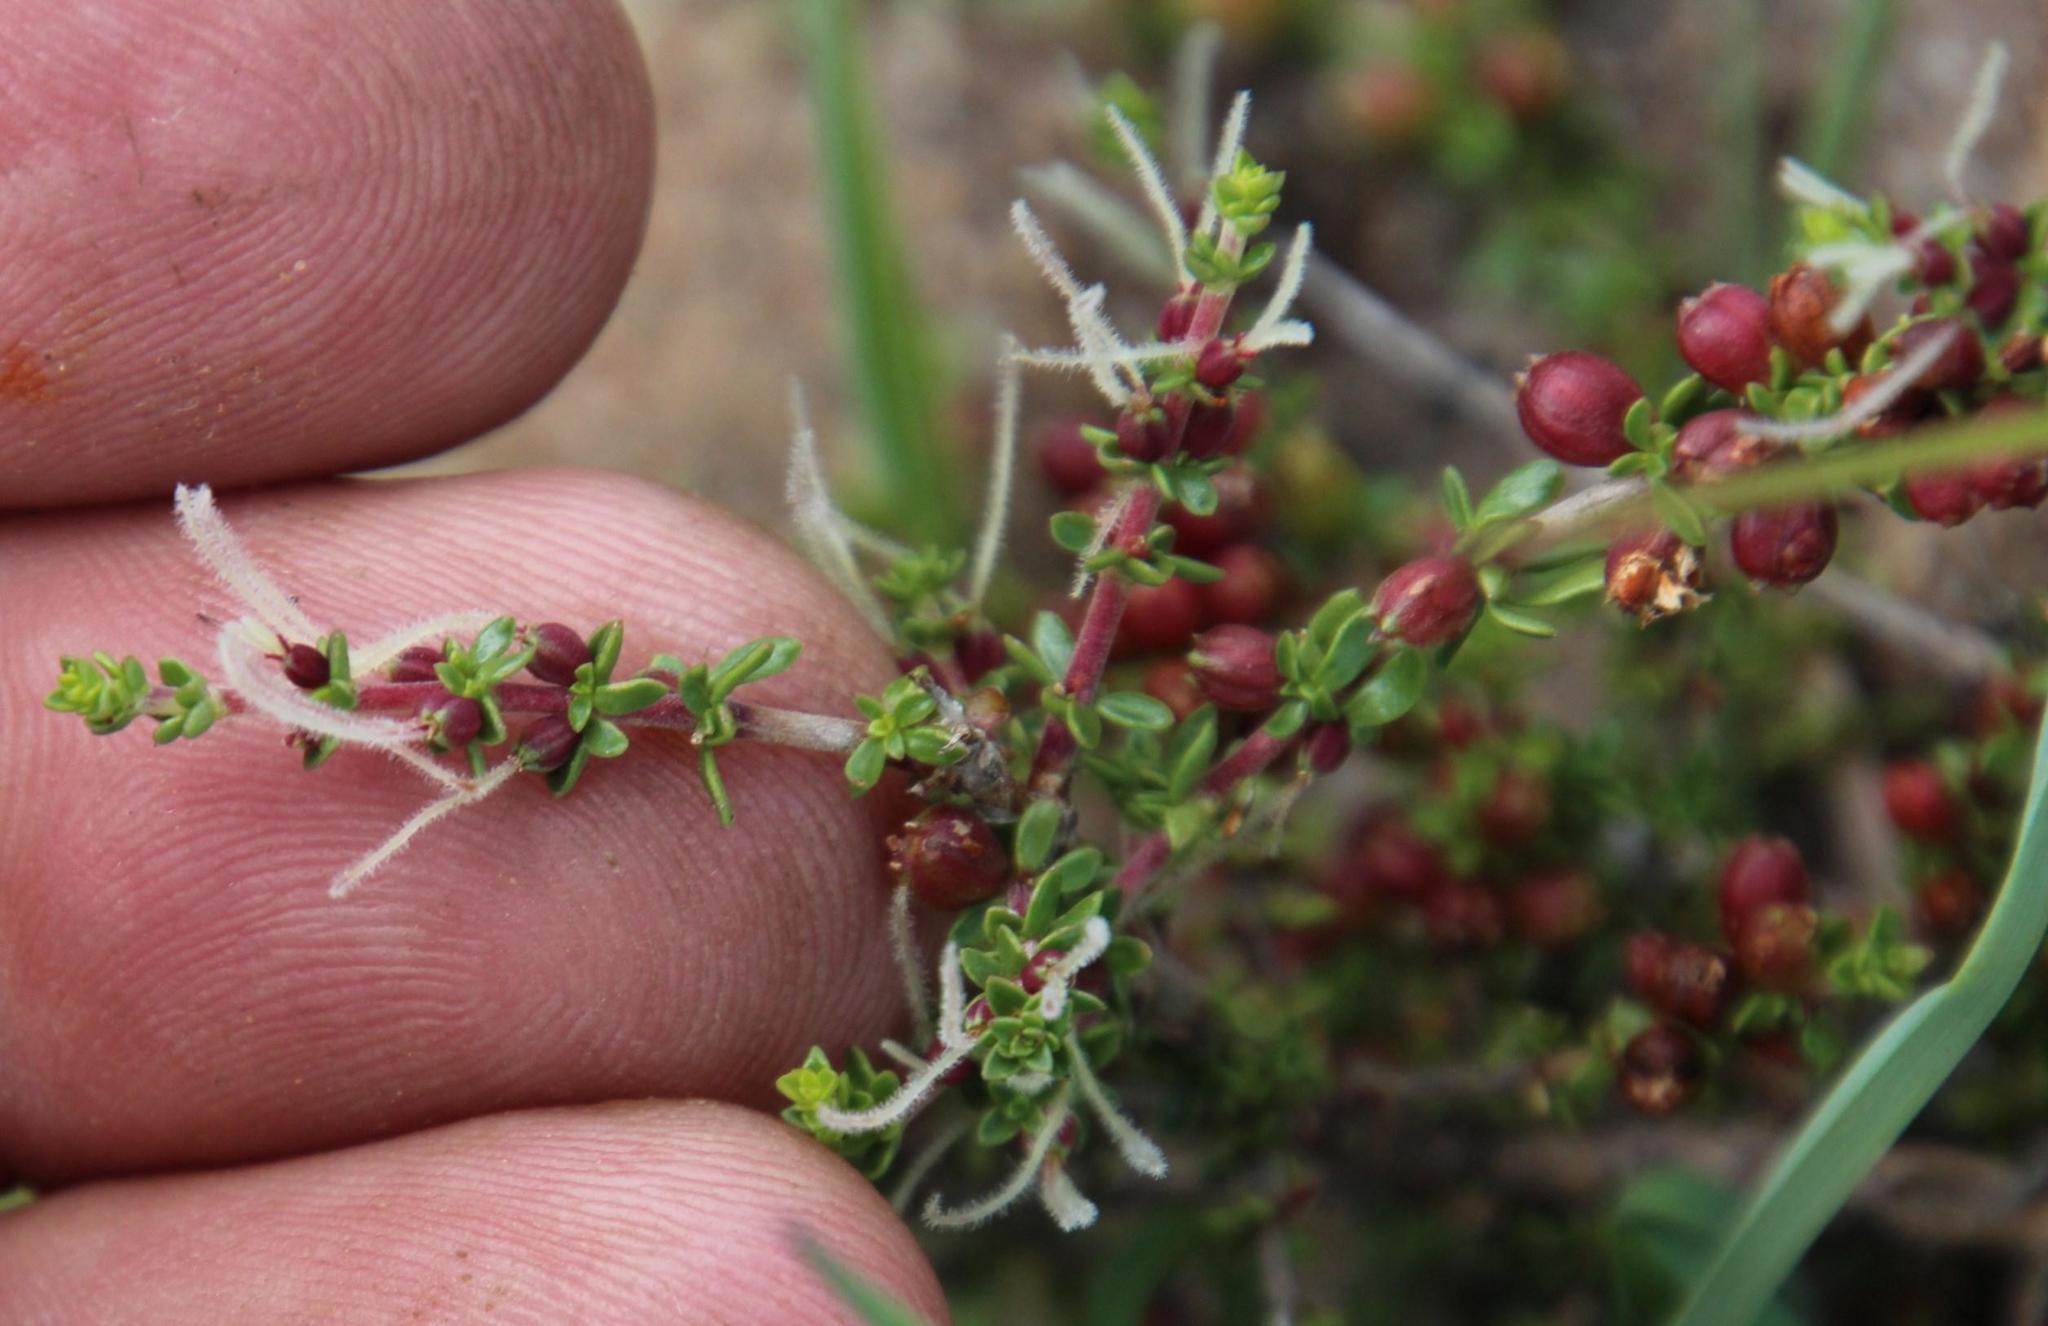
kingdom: Plantae
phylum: Tracheophyta
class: Magnoliopsida
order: Gentianales
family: Rubiaceae
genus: Nenax
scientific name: Nenax microphylla
